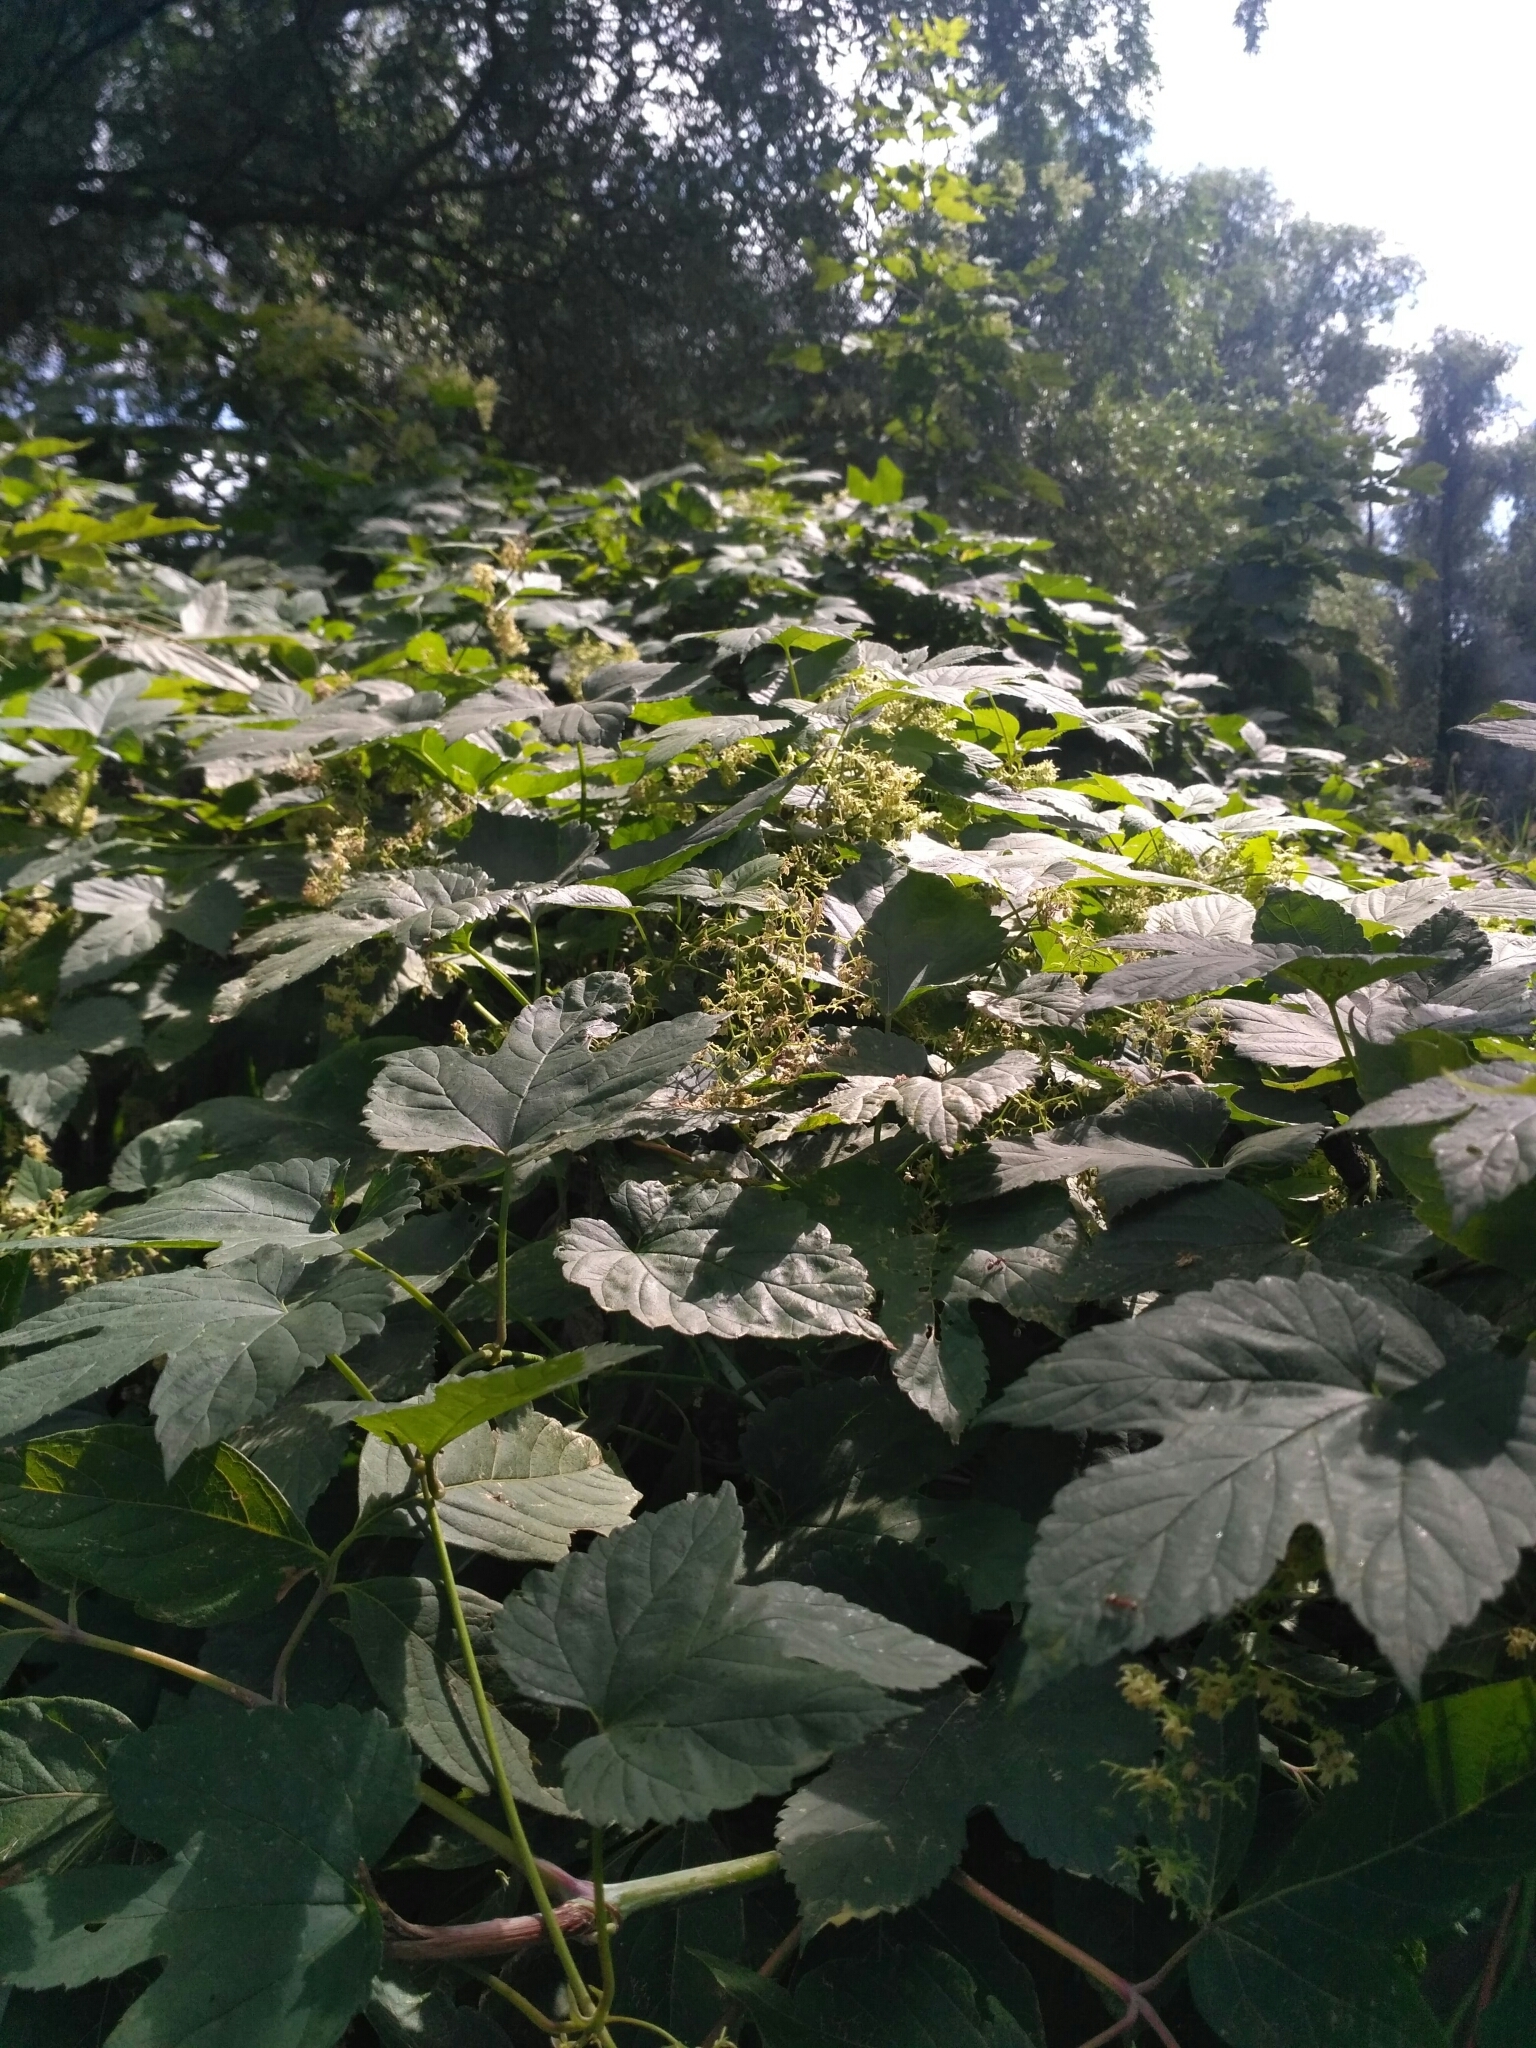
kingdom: Plantae
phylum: Tracheophyta
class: Magnoliopsida
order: Rosales
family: Cannabaceae
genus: Humulus
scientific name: Humulus lupulus
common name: Hop
